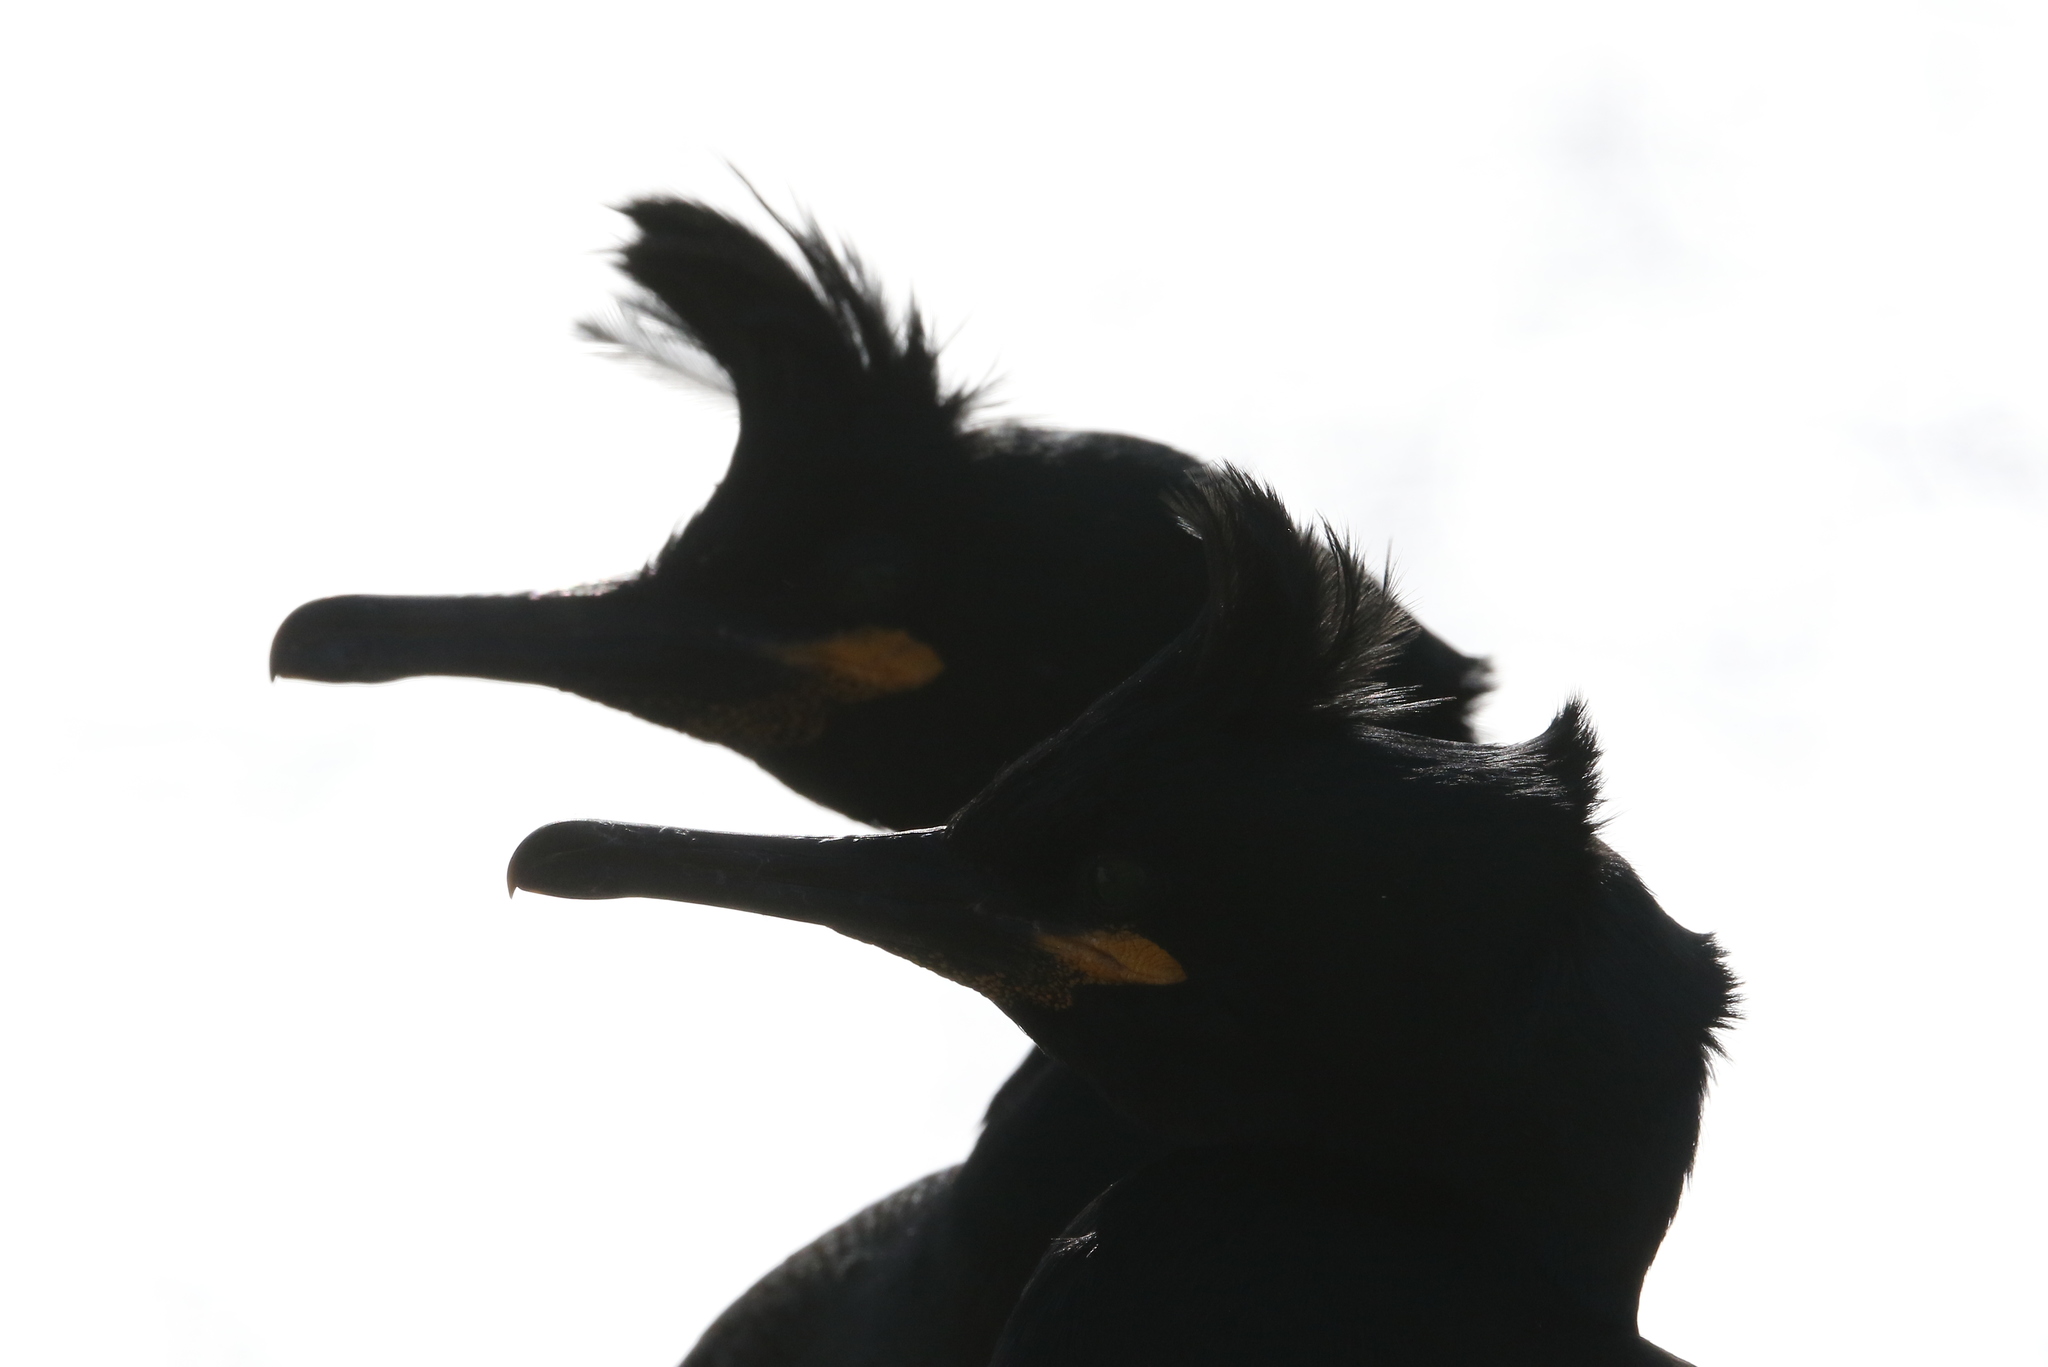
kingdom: Animalia
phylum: Chordata
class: Aves
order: Suliformes
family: Phalacrocoracidae
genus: Phalacrocorax
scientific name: Phalacrocorax aristotelis
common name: European shag
